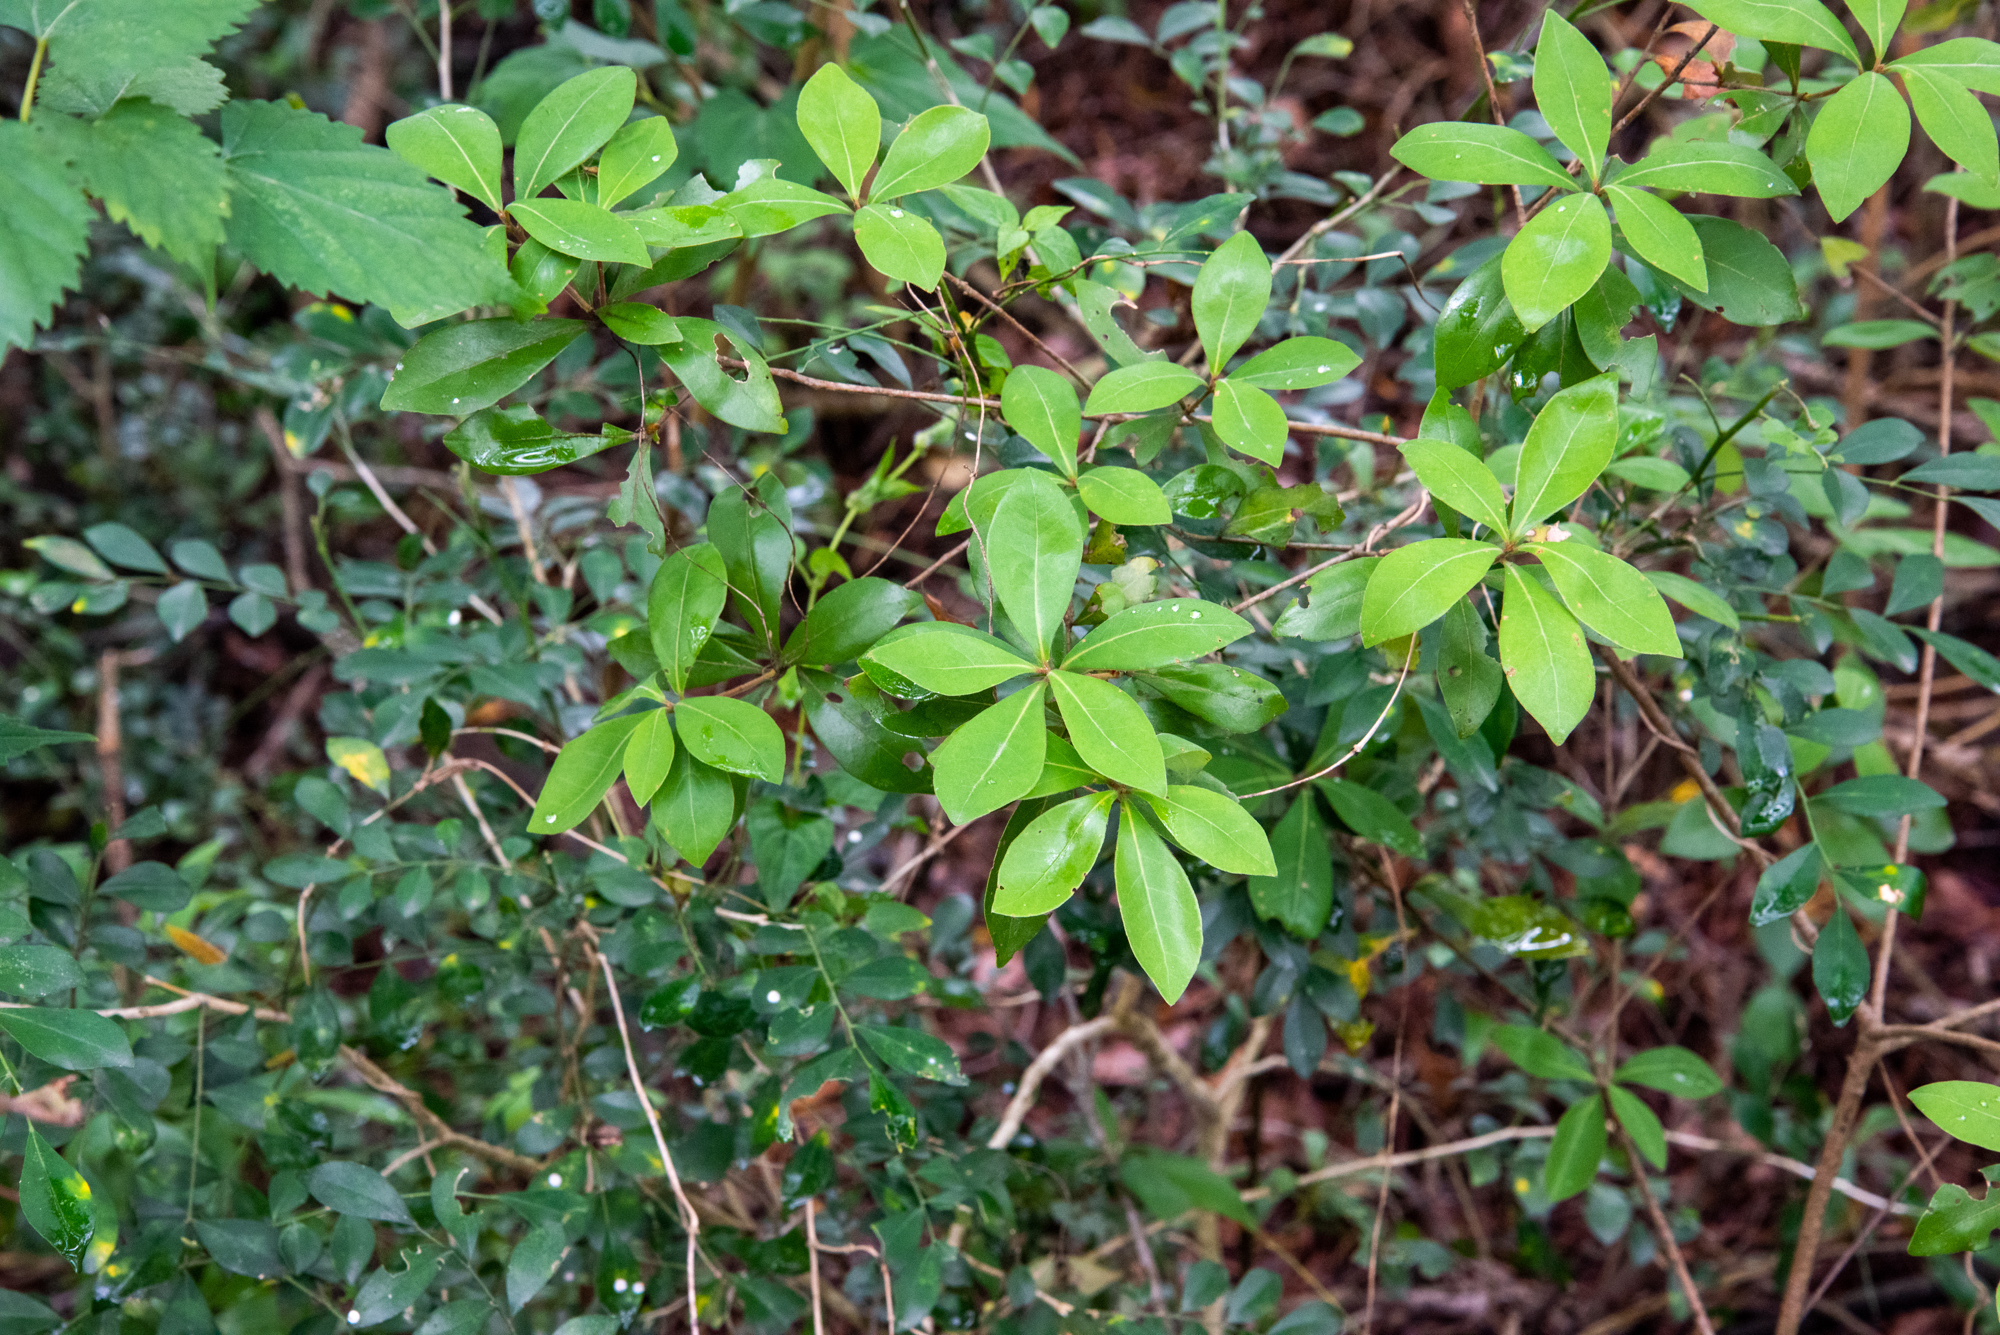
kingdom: Plantae
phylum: Tracheophyta
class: Magnoliopsida
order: Laurales
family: Lauraceae
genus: Litsea
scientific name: Litsea rotundifolia
